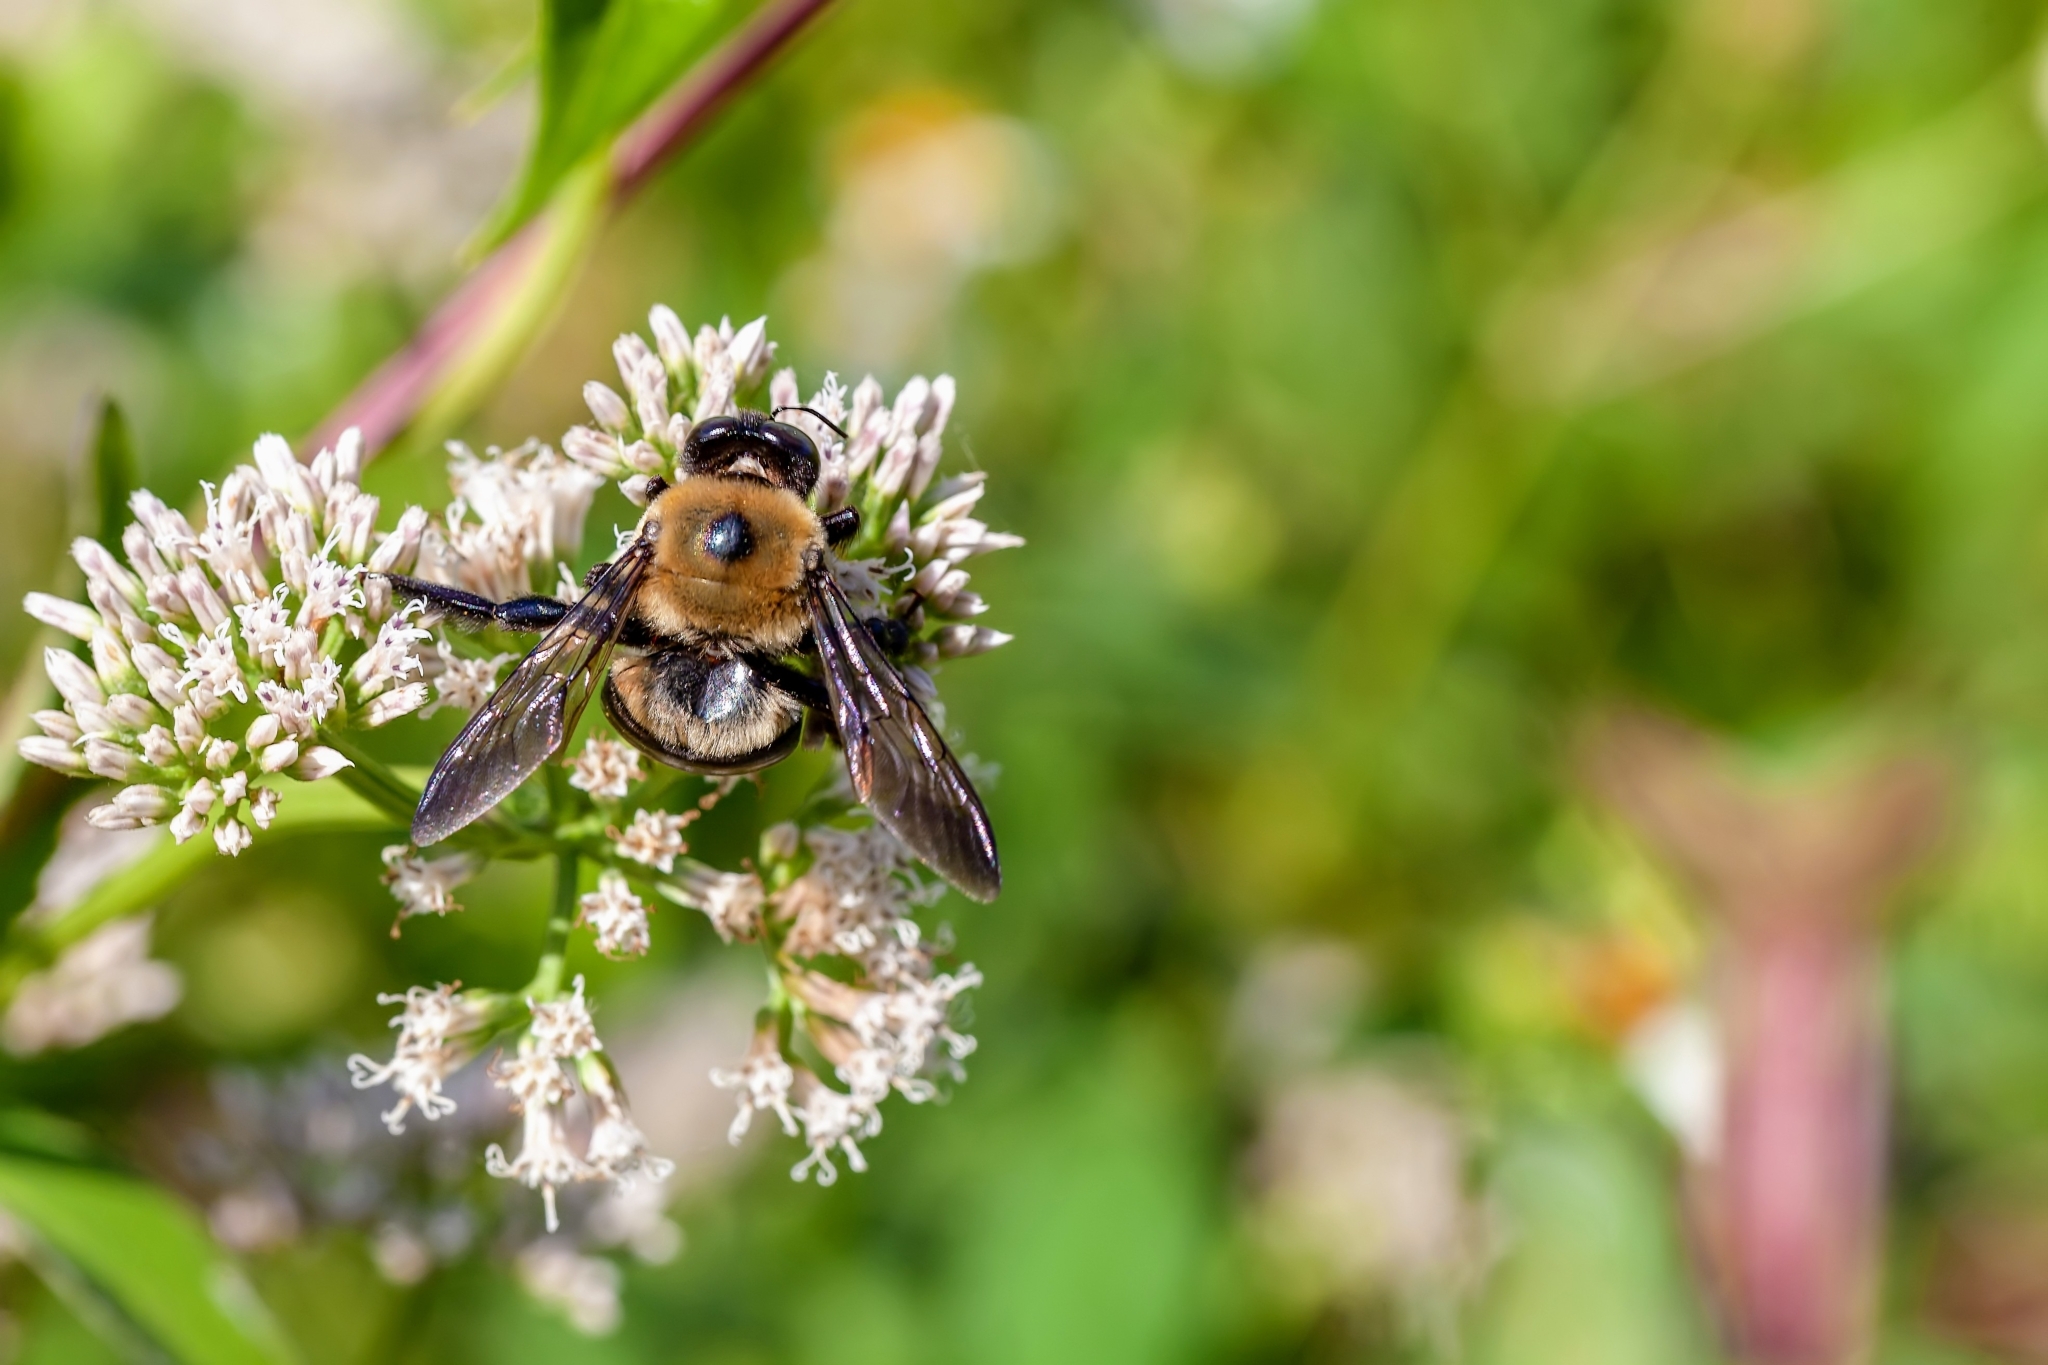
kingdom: Animalia
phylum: Arthropoda
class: Insecta
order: Hymenoptera
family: Apidae
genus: Xylocopa
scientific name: Xylocopa virginica
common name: Carpenter bee
